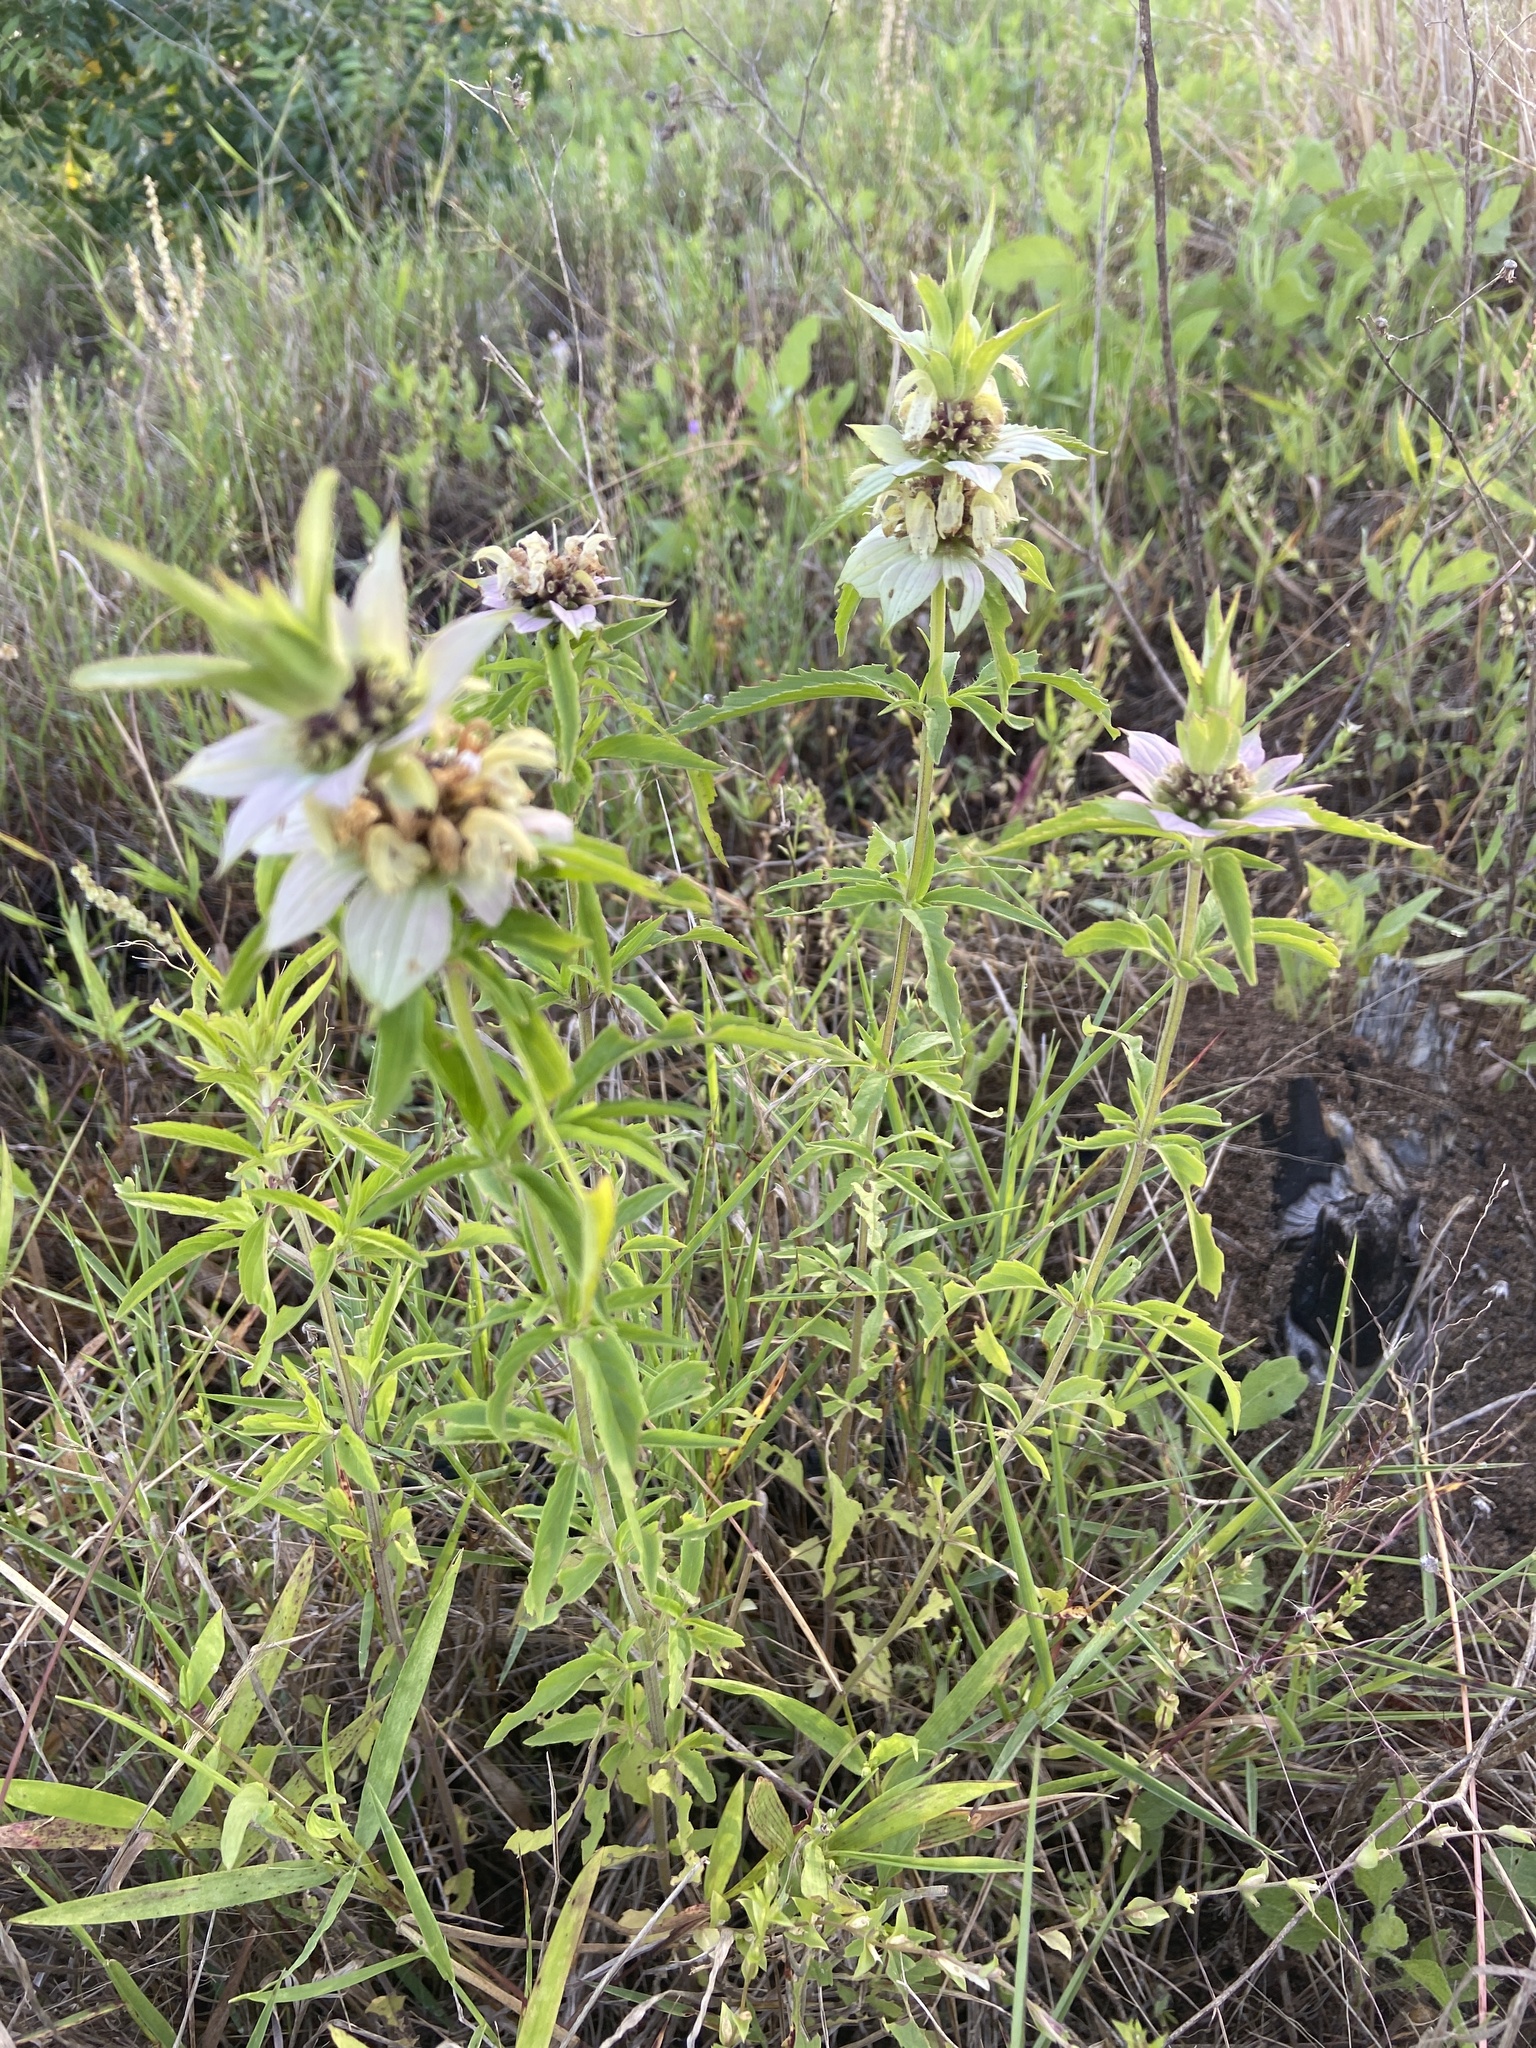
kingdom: Plantae
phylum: Tracheophyta
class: Magnoliopsida
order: Lamiales
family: Lamiaceae
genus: Monarda
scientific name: Monarda punctata
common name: Dotted monarda
